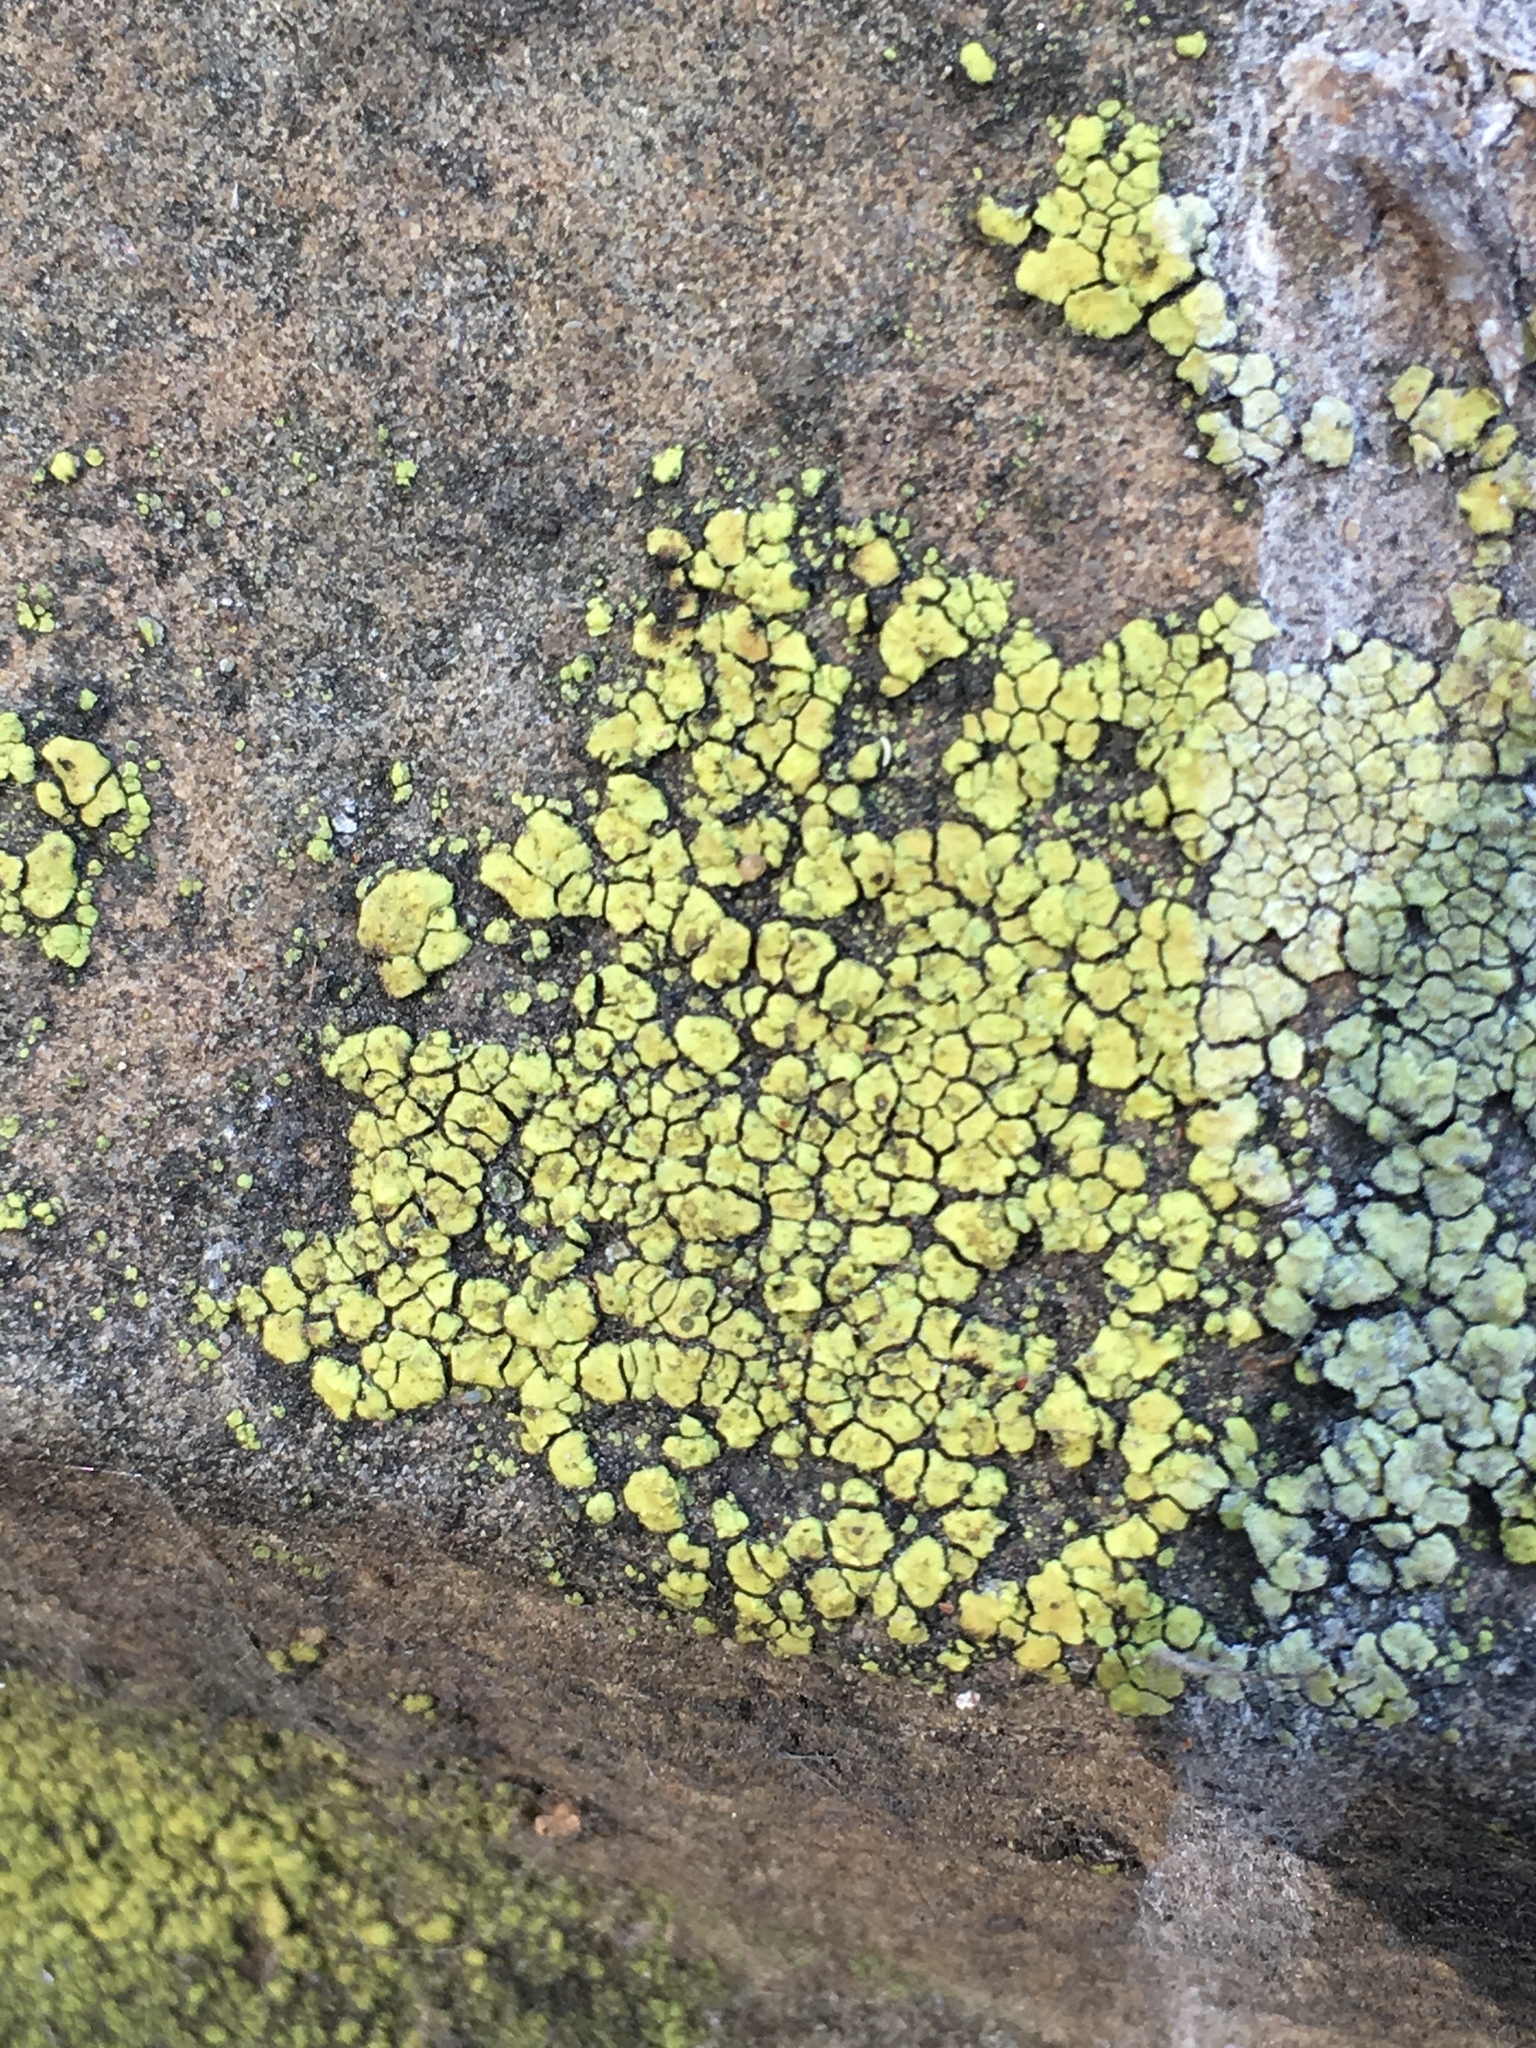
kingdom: Fungi
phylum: Ascomycota
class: Lecanoromycetes
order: Acarosporales
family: Acarosporaceae
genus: Acarospora
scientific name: Acarospora socialis
